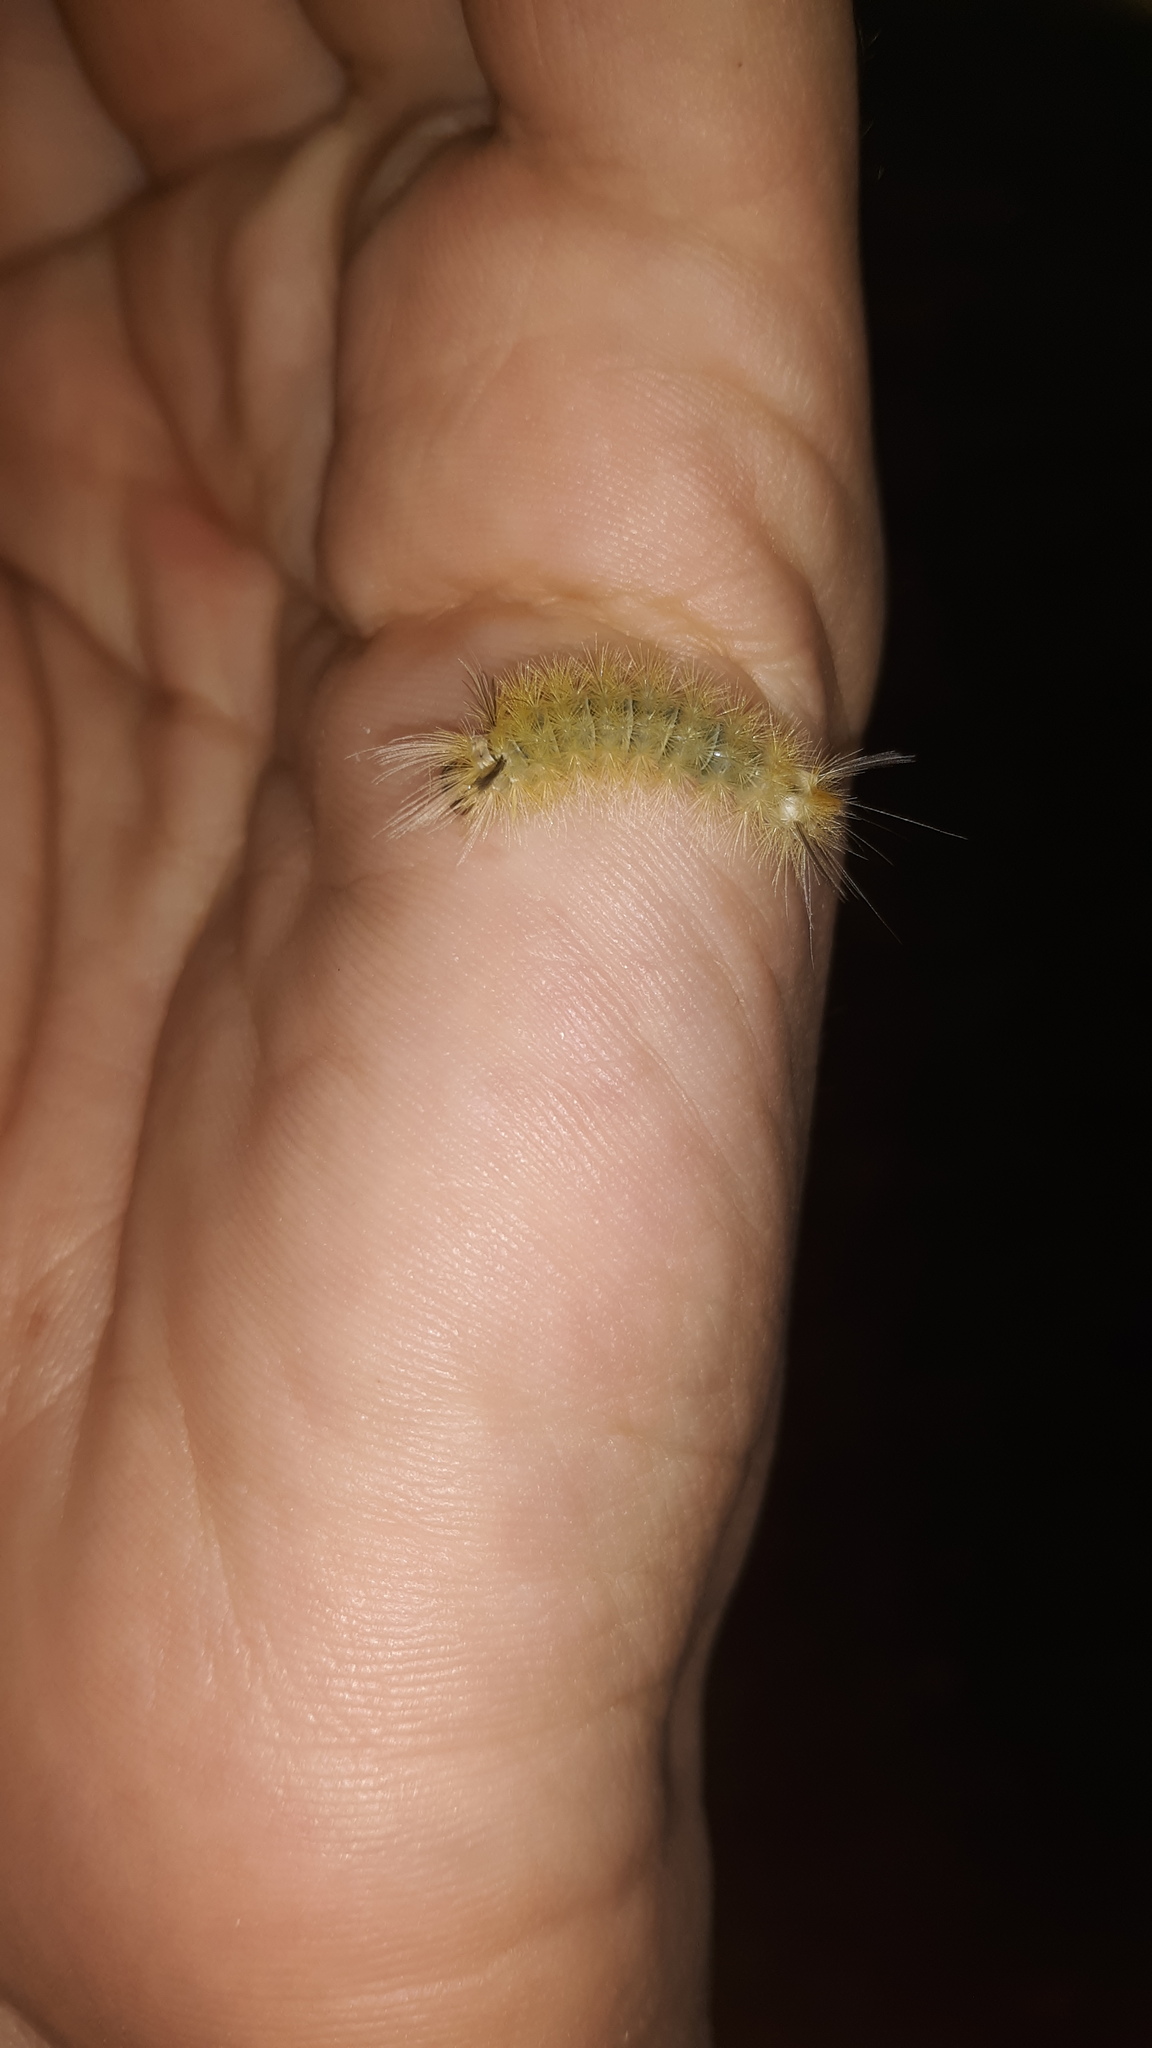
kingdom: Animalia
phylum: Arthropoda
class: Insecta
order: Lepidoptera
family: Erebidae
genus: Halysidota
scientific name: Halysidota tessellaris
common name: Banded tussock moth
